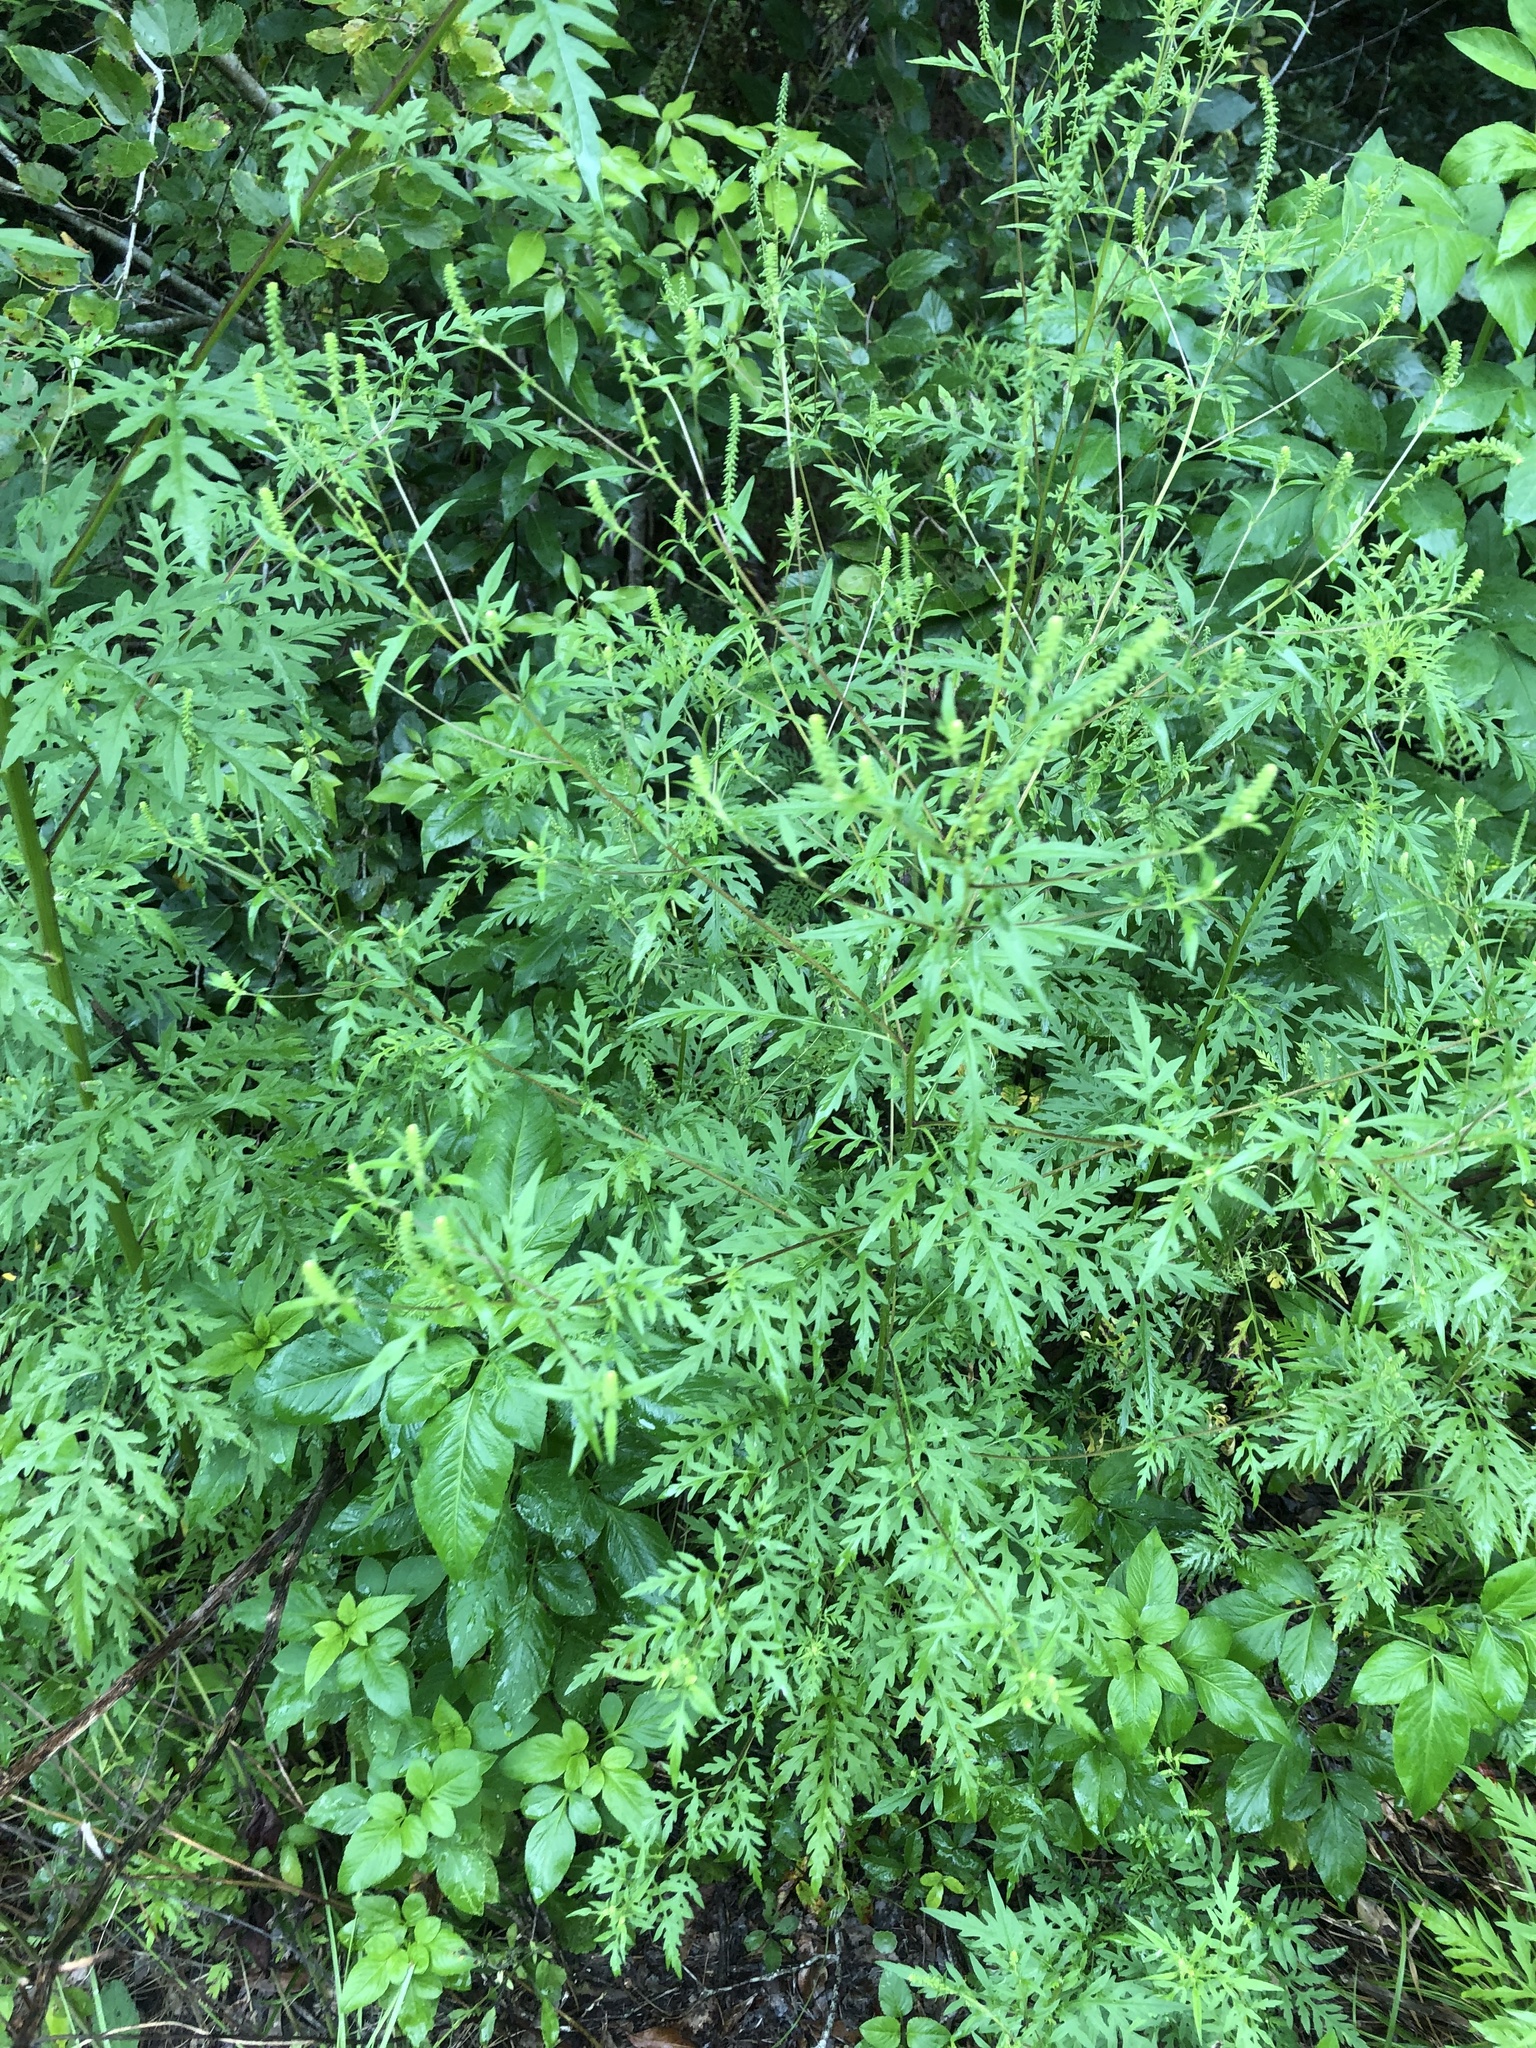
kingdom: Plantae
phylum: Tracheophyta
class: Magnoliopsida
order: Asterales
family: Asteraceae
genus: Ambrosia
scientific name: Ambrosia artemisiifolia
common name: Annual ragweed
